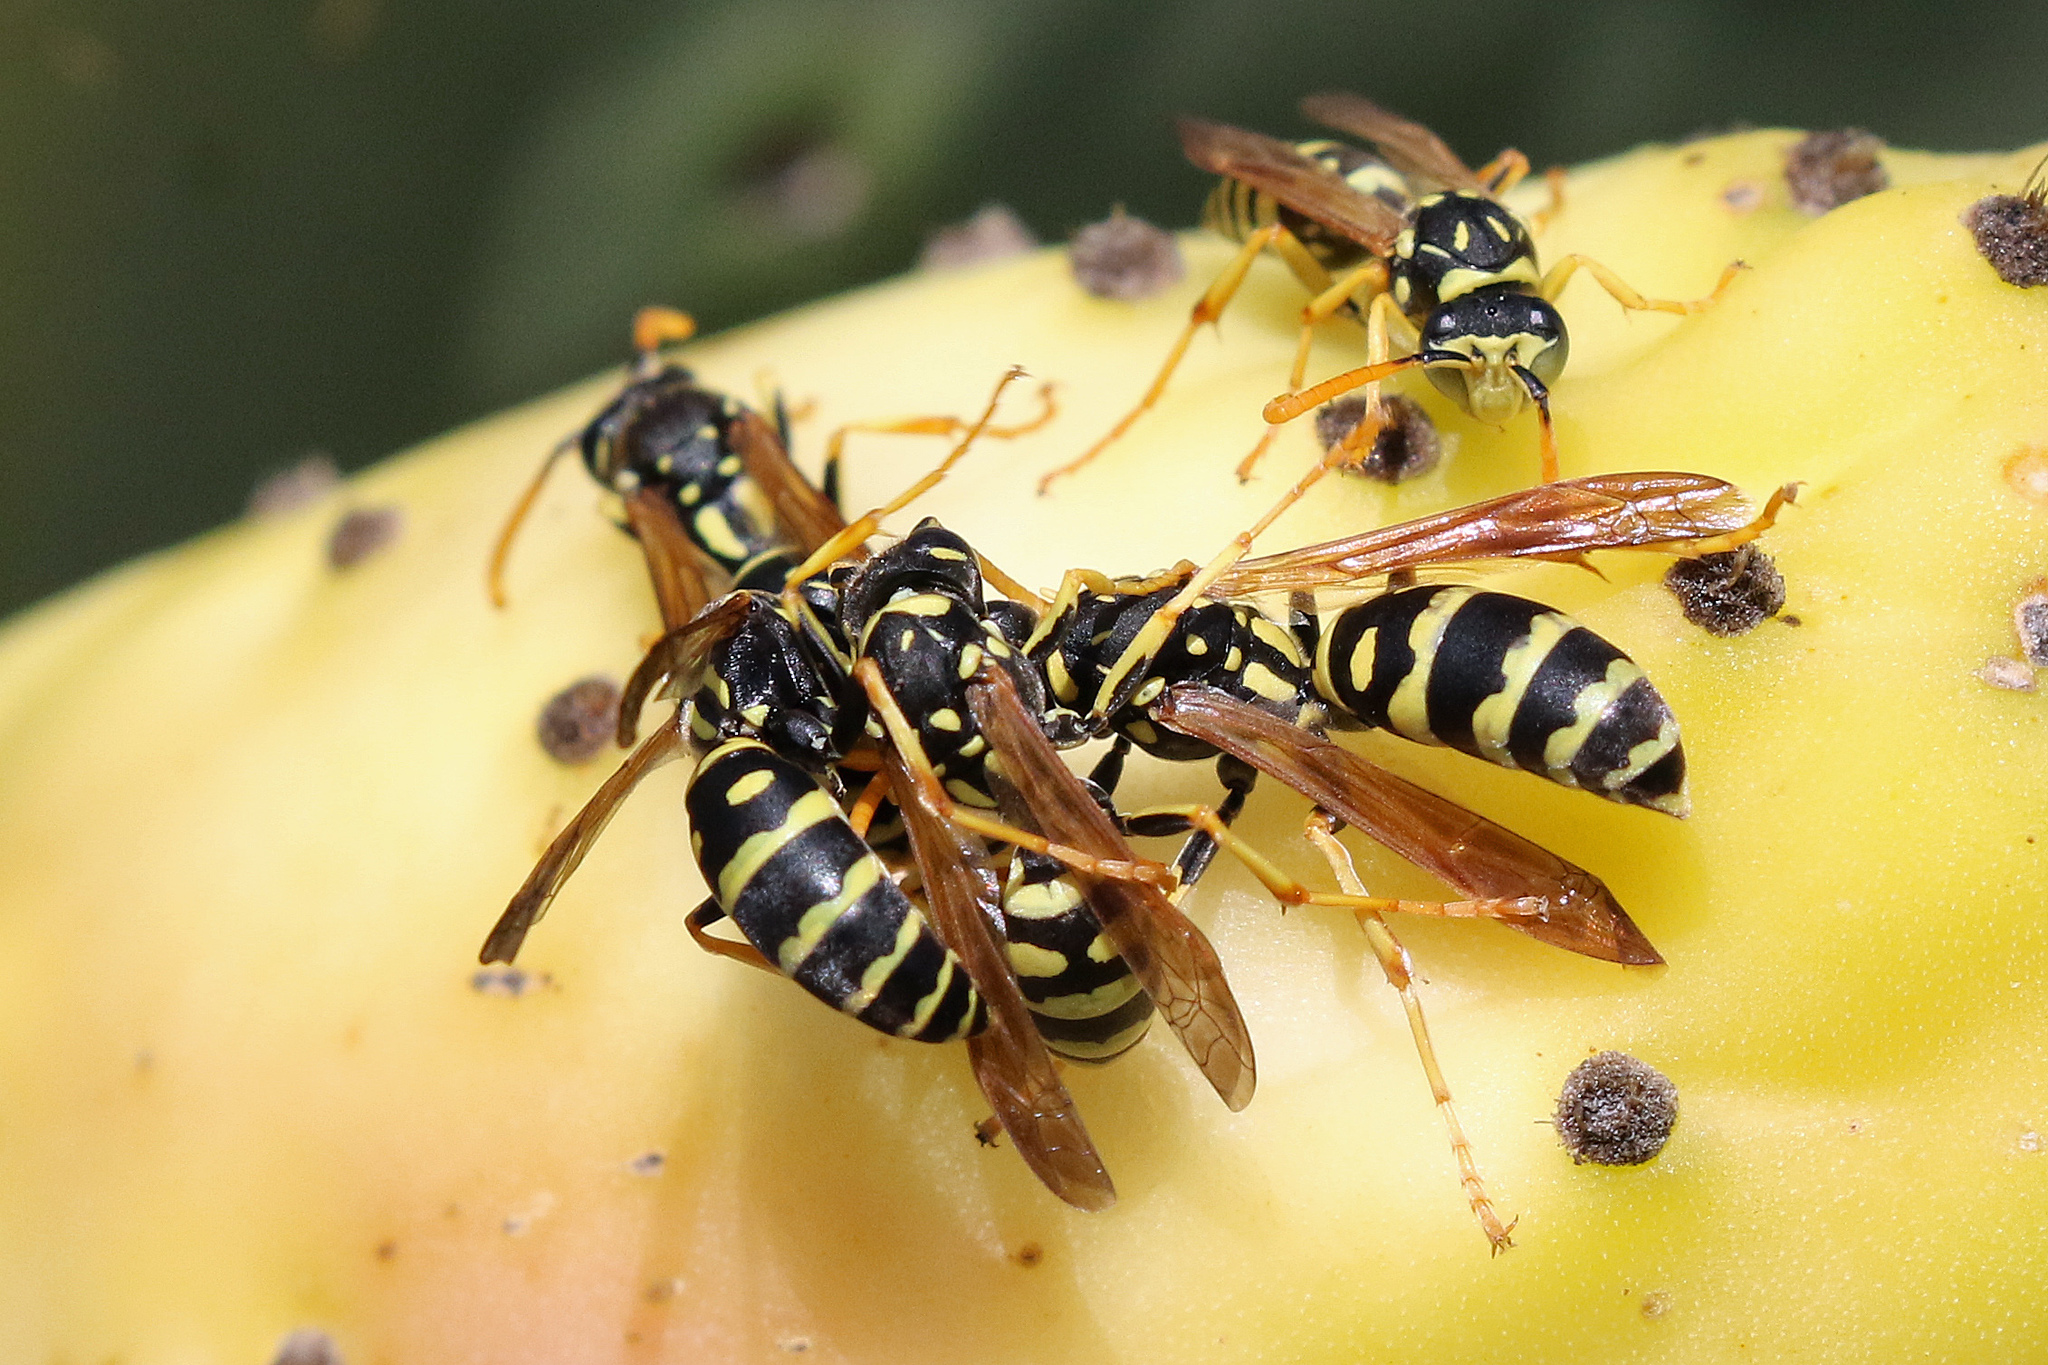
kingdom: Animalia
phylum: Arthropoda
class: Insecta
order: Hymenoptera
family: Eumenidae
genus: Polistes
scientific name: Polistes dominula
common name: Paper wasp
